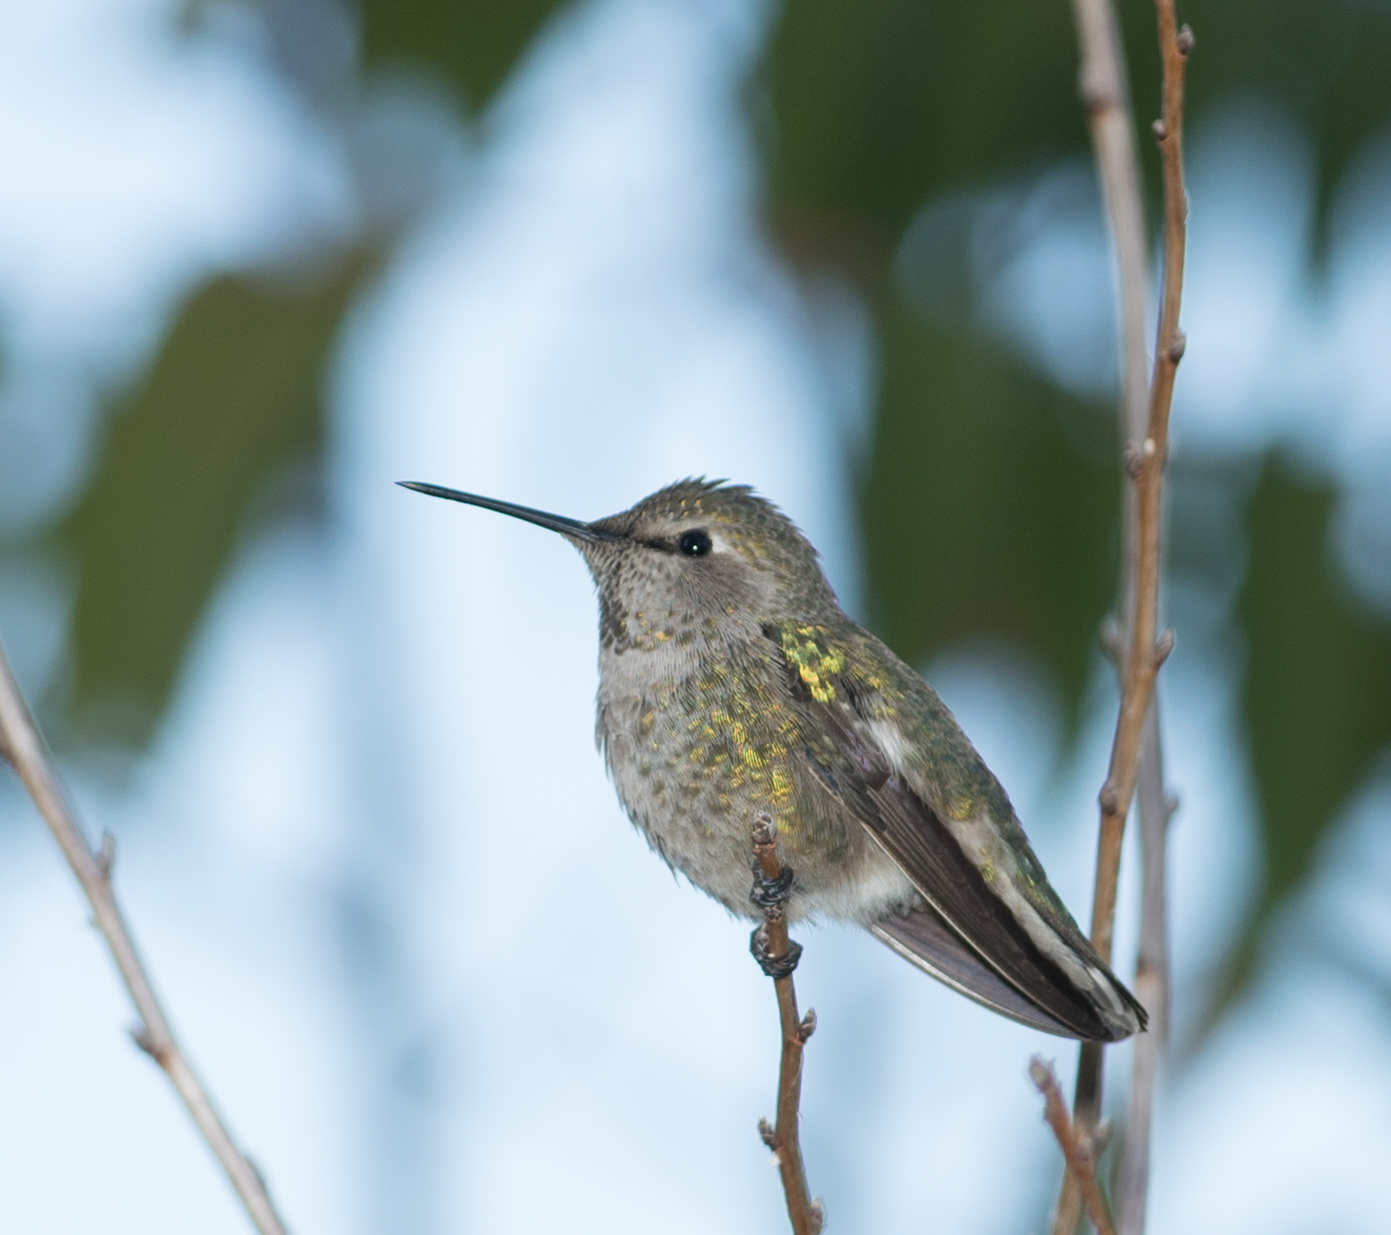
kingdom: Animalia
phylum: Chordata
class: Aves
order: Apodiformes
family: Trochilidae
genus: Calypte
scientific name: Calypte anna
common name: Anna's hummingbird
